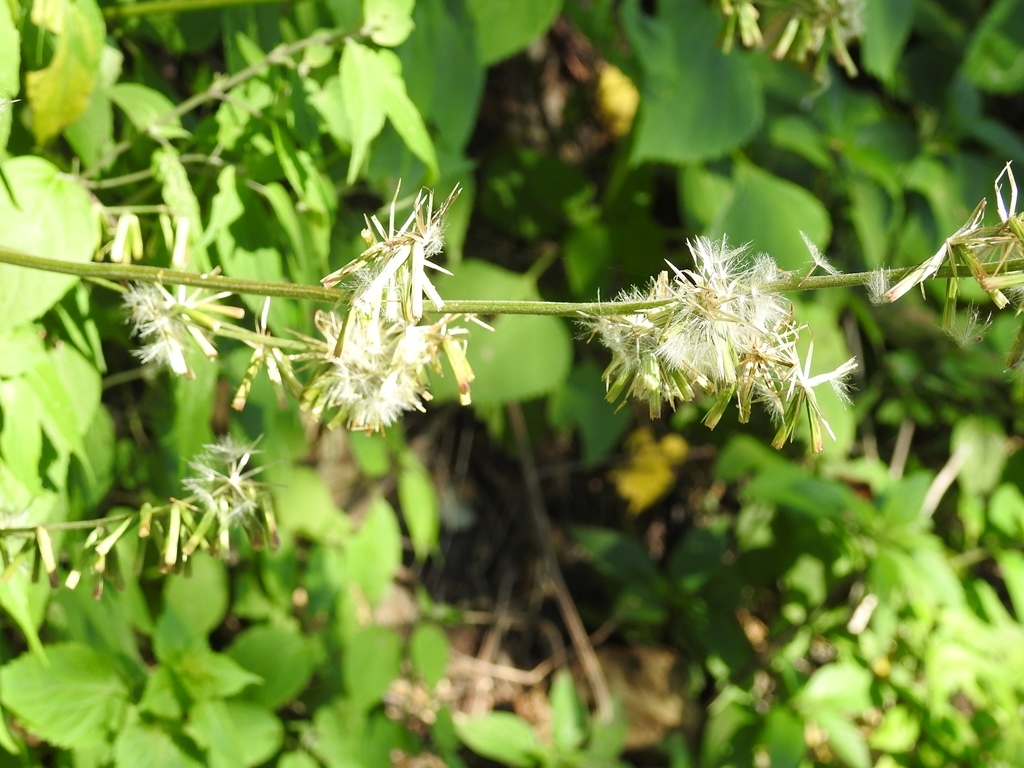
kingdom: Plantae
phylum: Tracheophyta
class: Magnoliopsida
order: Asterales
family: Asteraceae
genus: Carminatia
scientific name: Carminatia recondita
